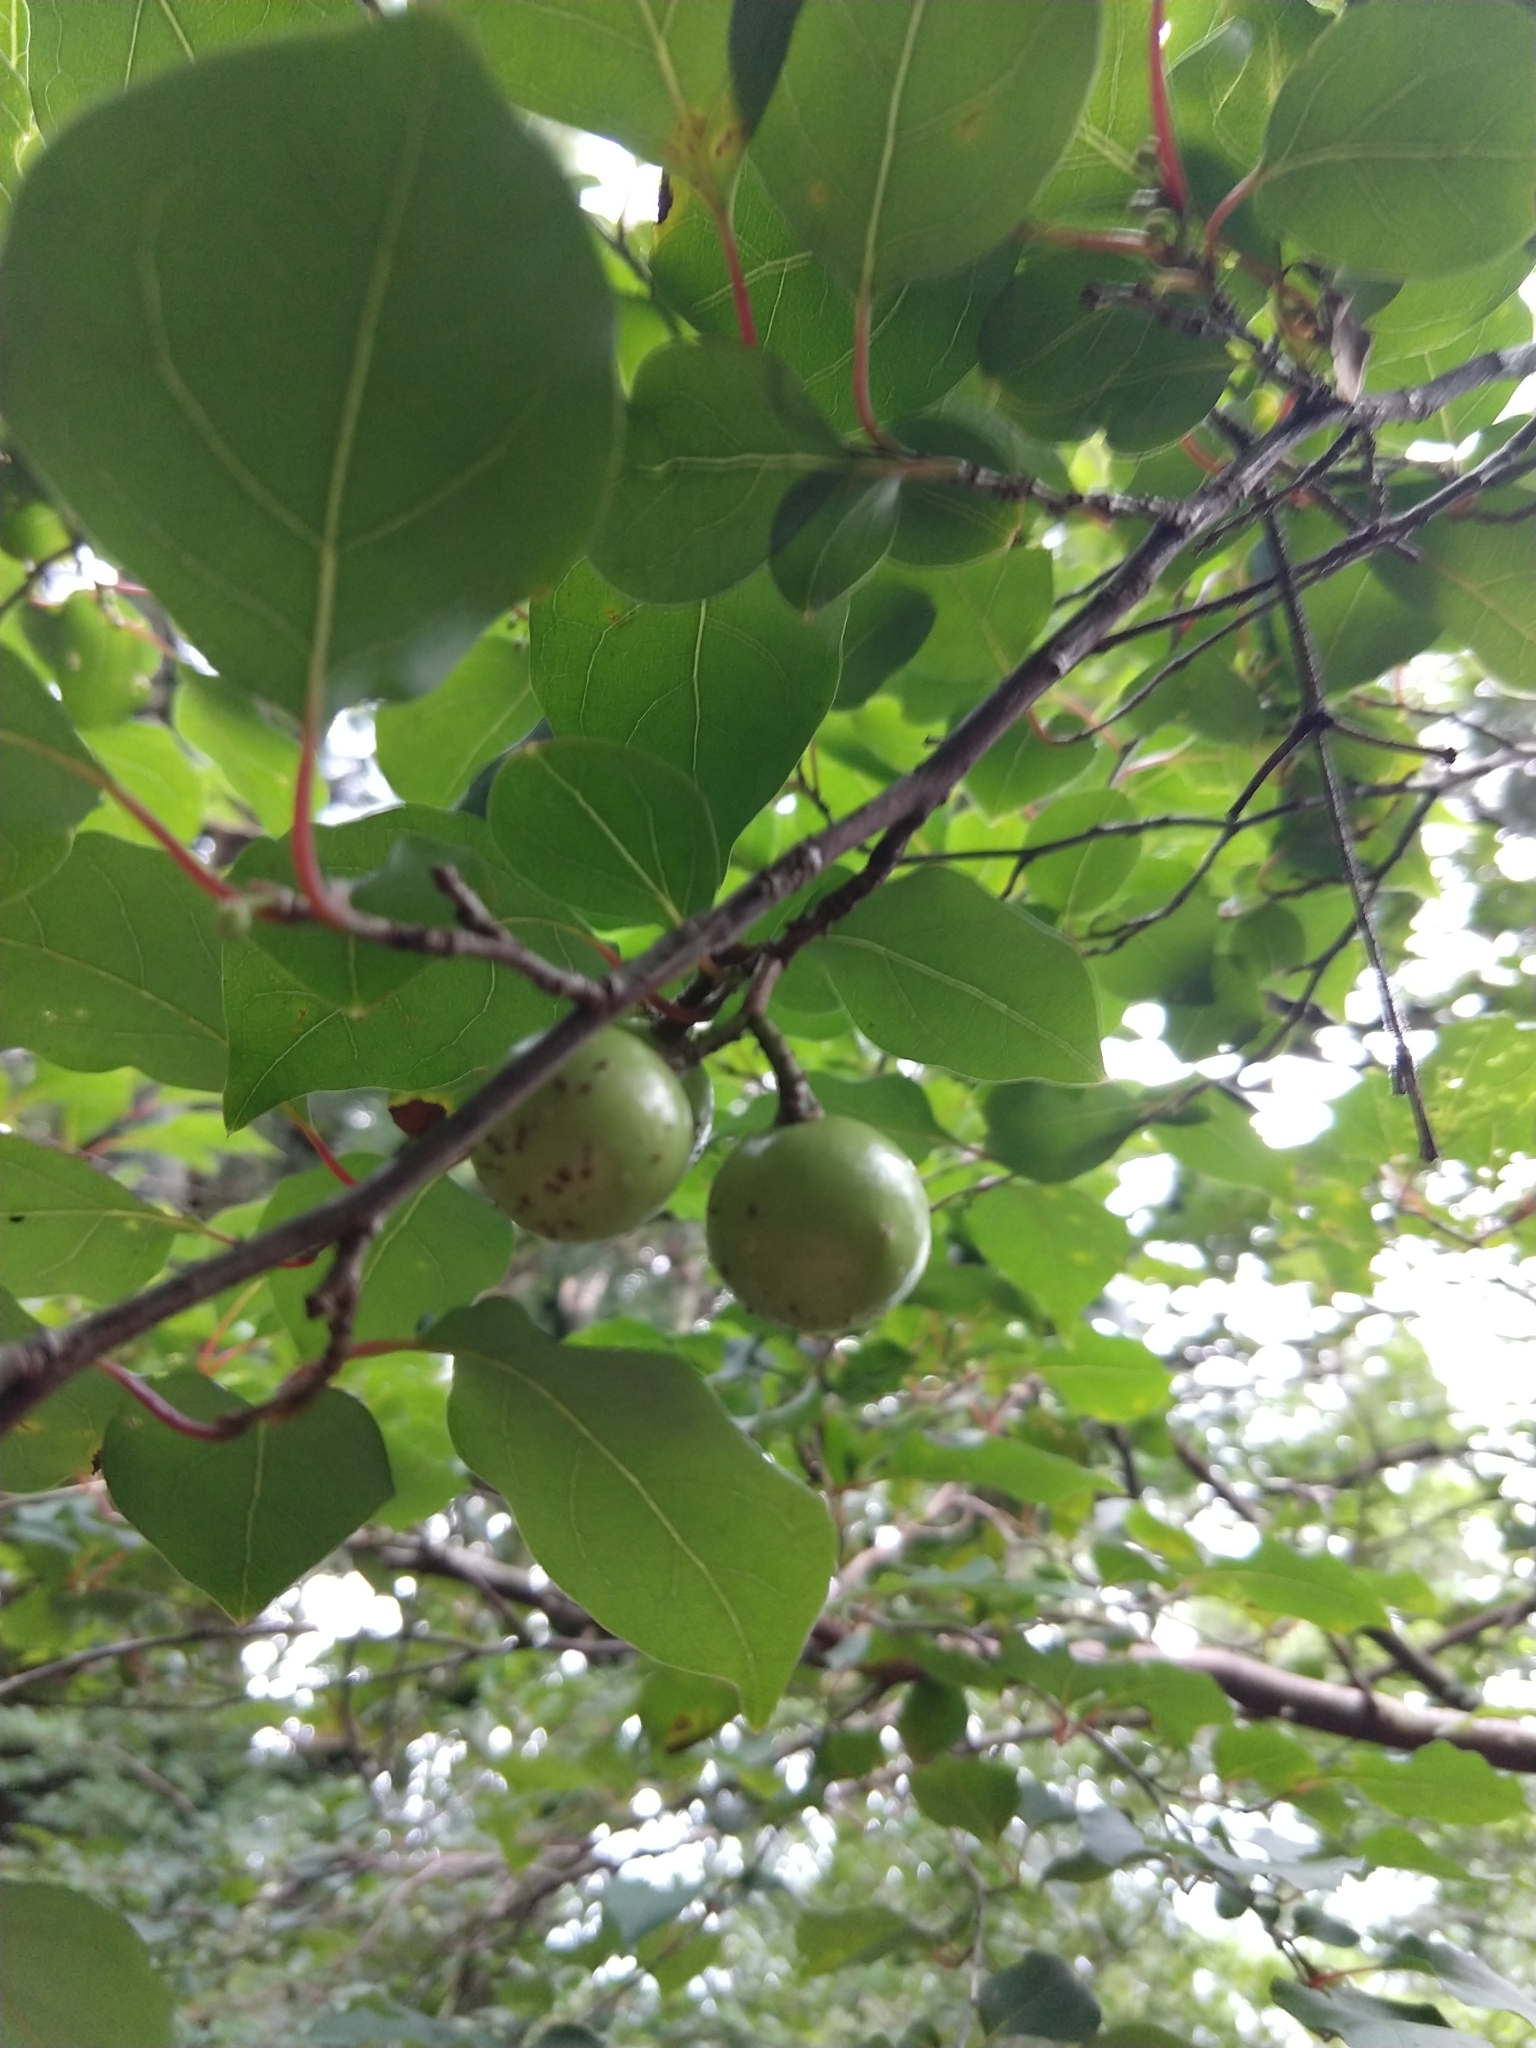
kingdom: Plantae
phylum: Tracheophyta
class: Magnoliopsida
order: Laurales
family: Lauraceae
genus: Lindera
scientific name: Lindera praecox
